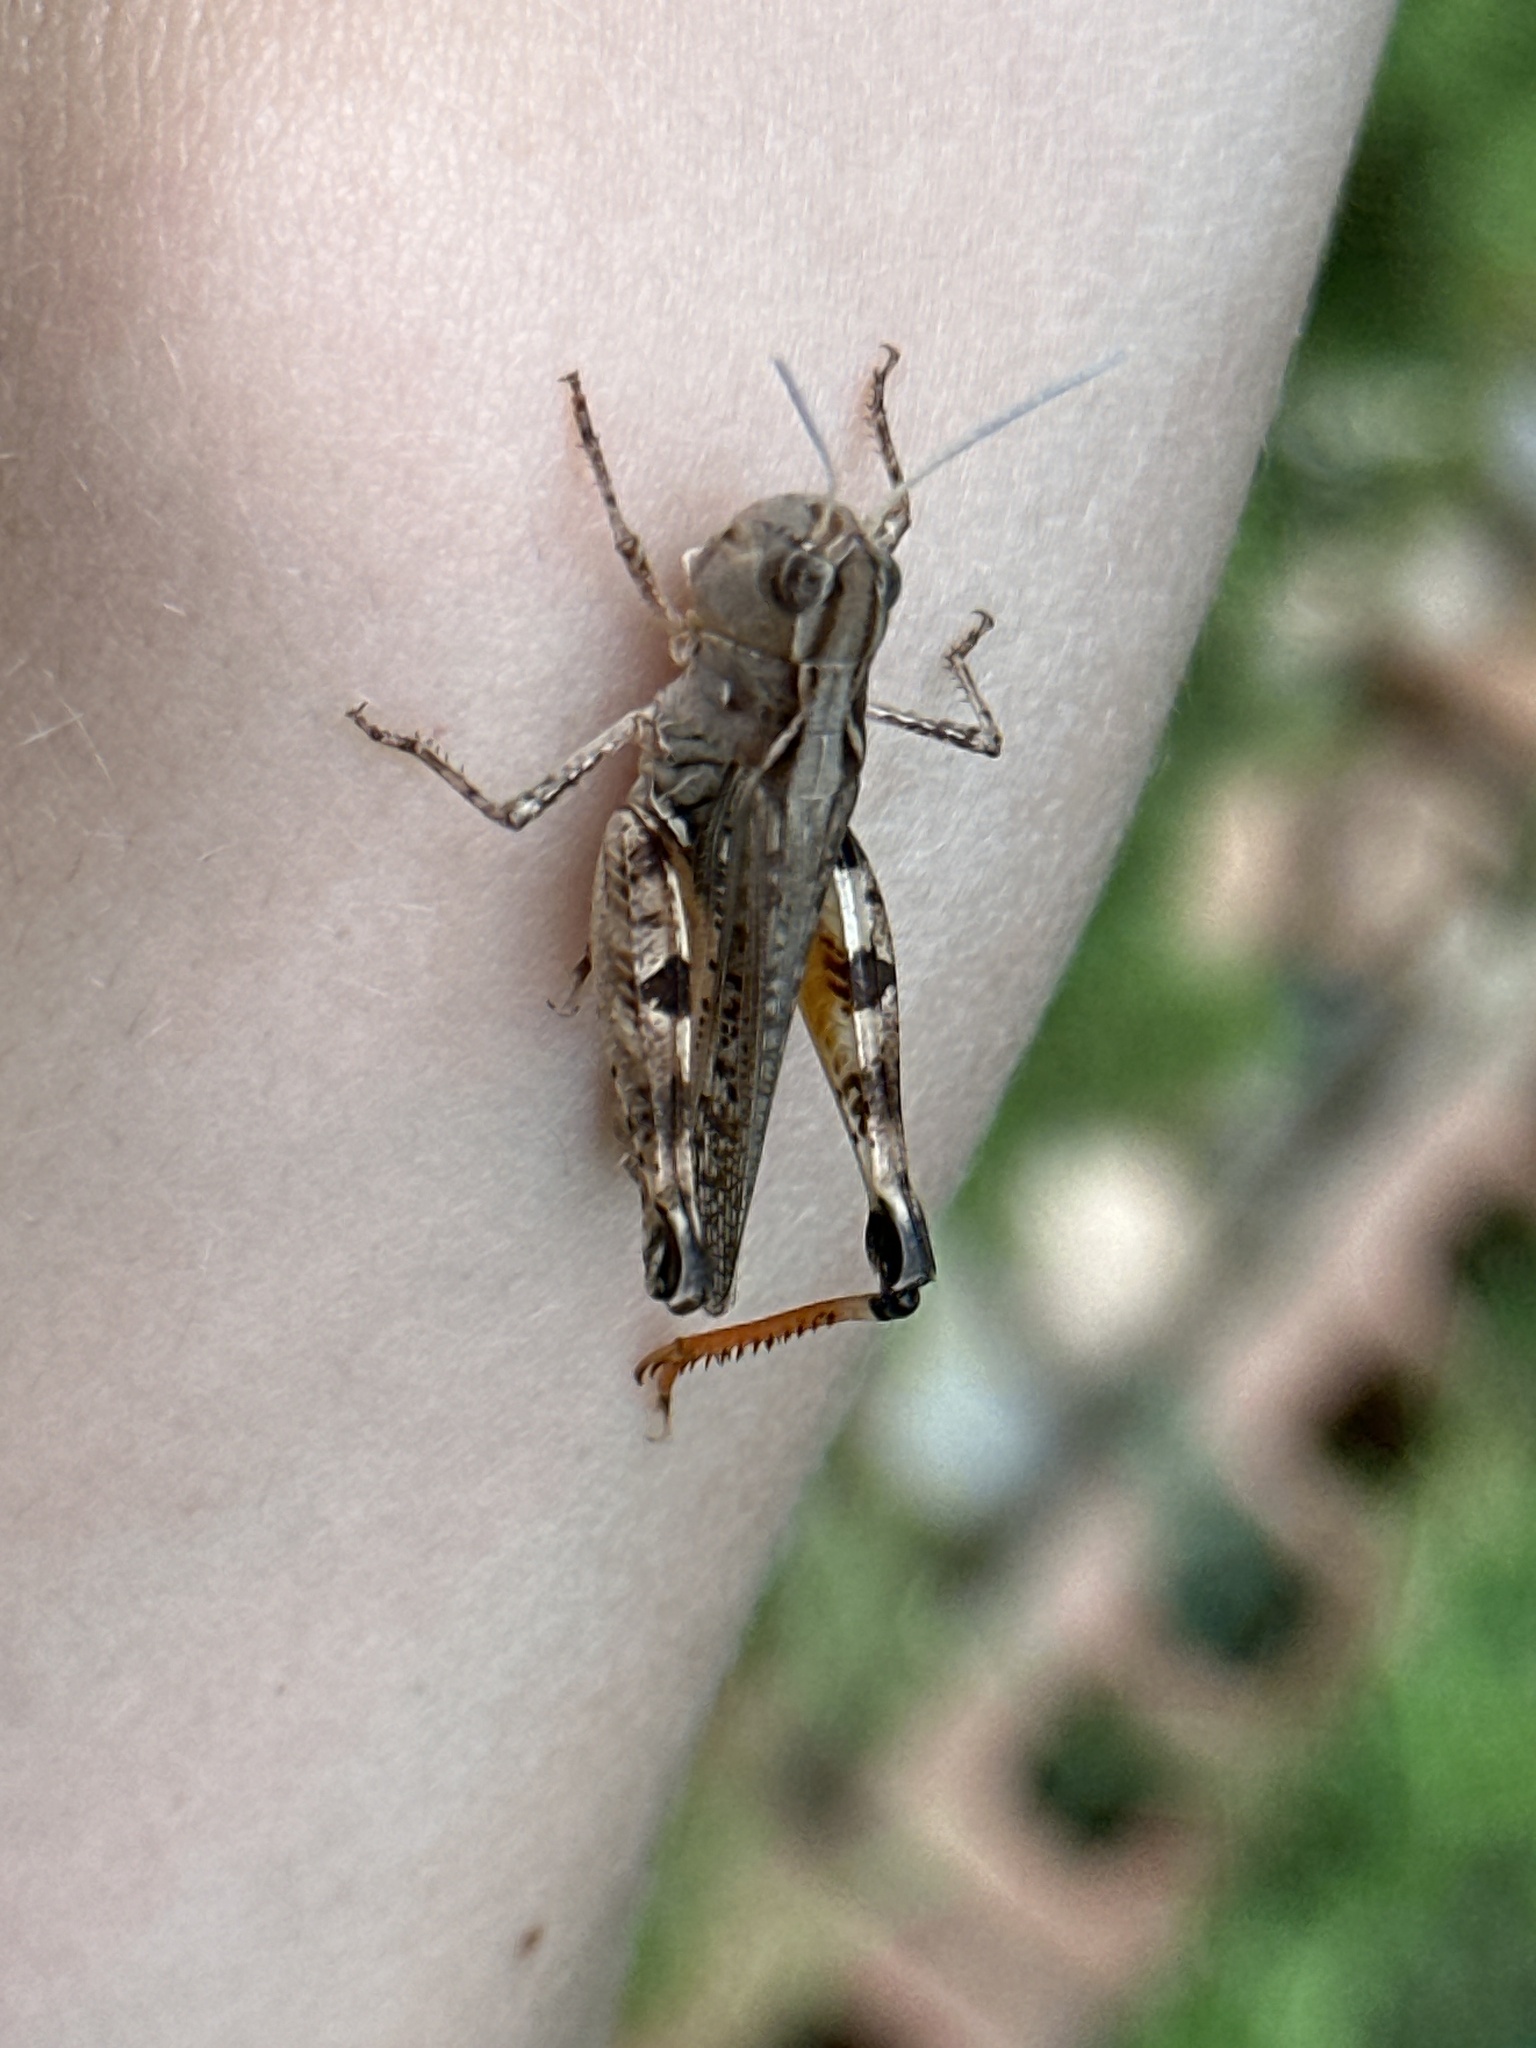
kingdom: Animalia
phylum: Arthropoda
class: Insecta
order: Orthoptera
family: Acrididae
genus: Ageneotettix
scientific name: Ageneotettix deorum
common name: White-whiskered grasshopper
